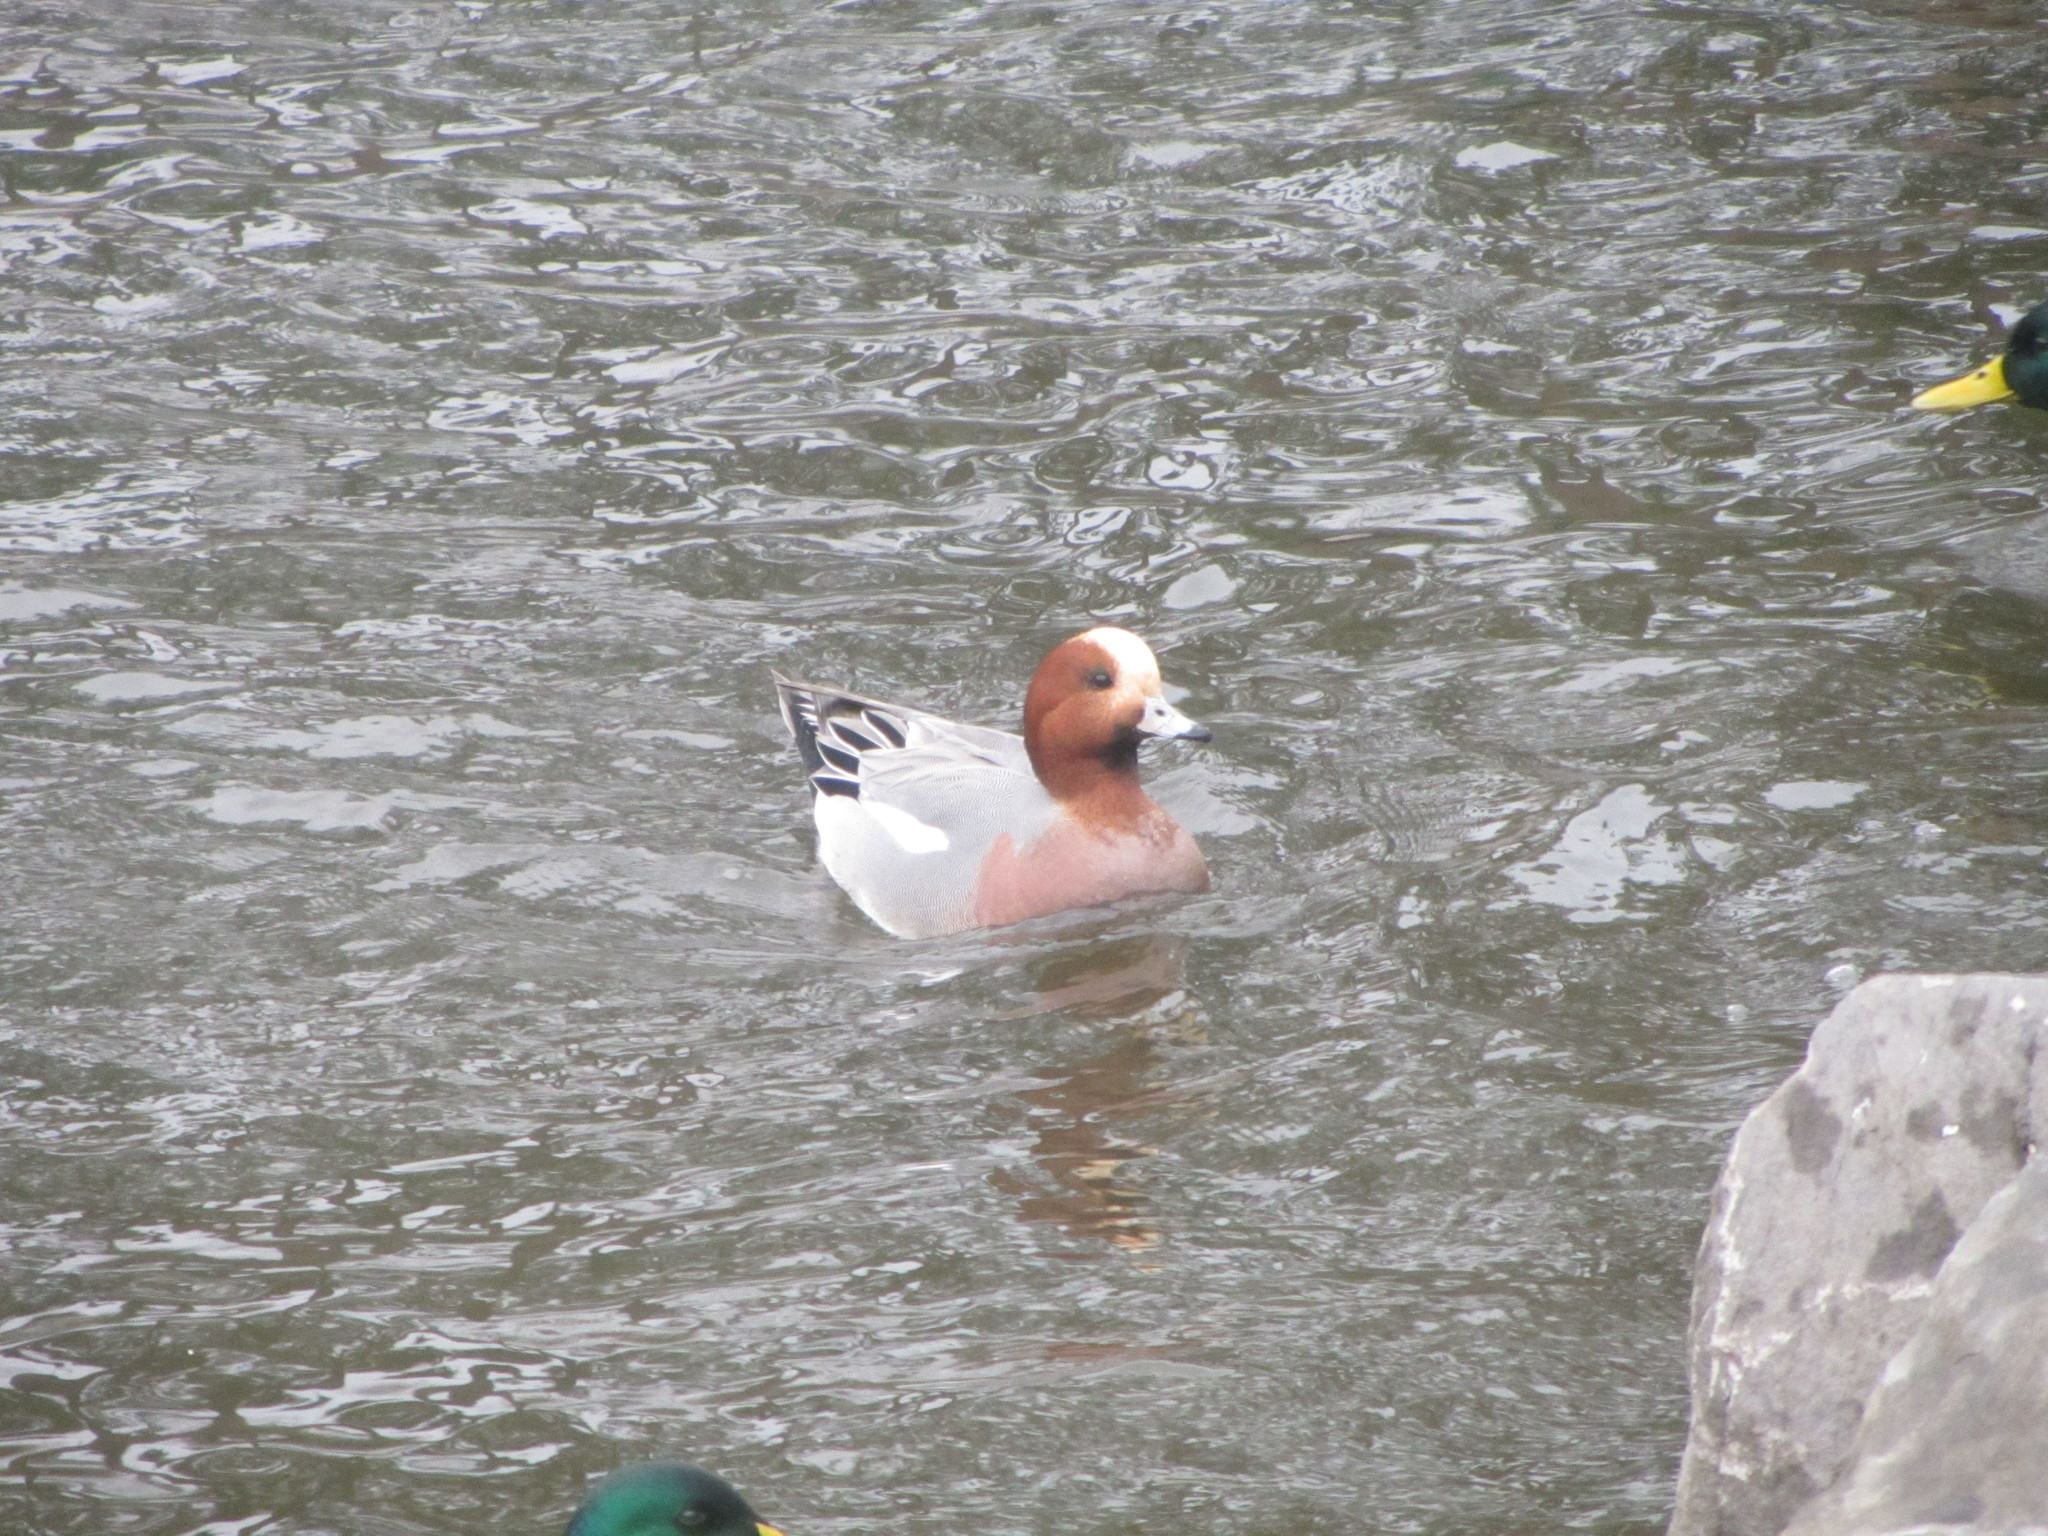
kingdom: Animalia
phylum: Chordata
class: Aves
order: Anseriformes
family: Anatidae
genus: Mareca
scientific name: Mareca penelope
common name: Eurasian wigeon
